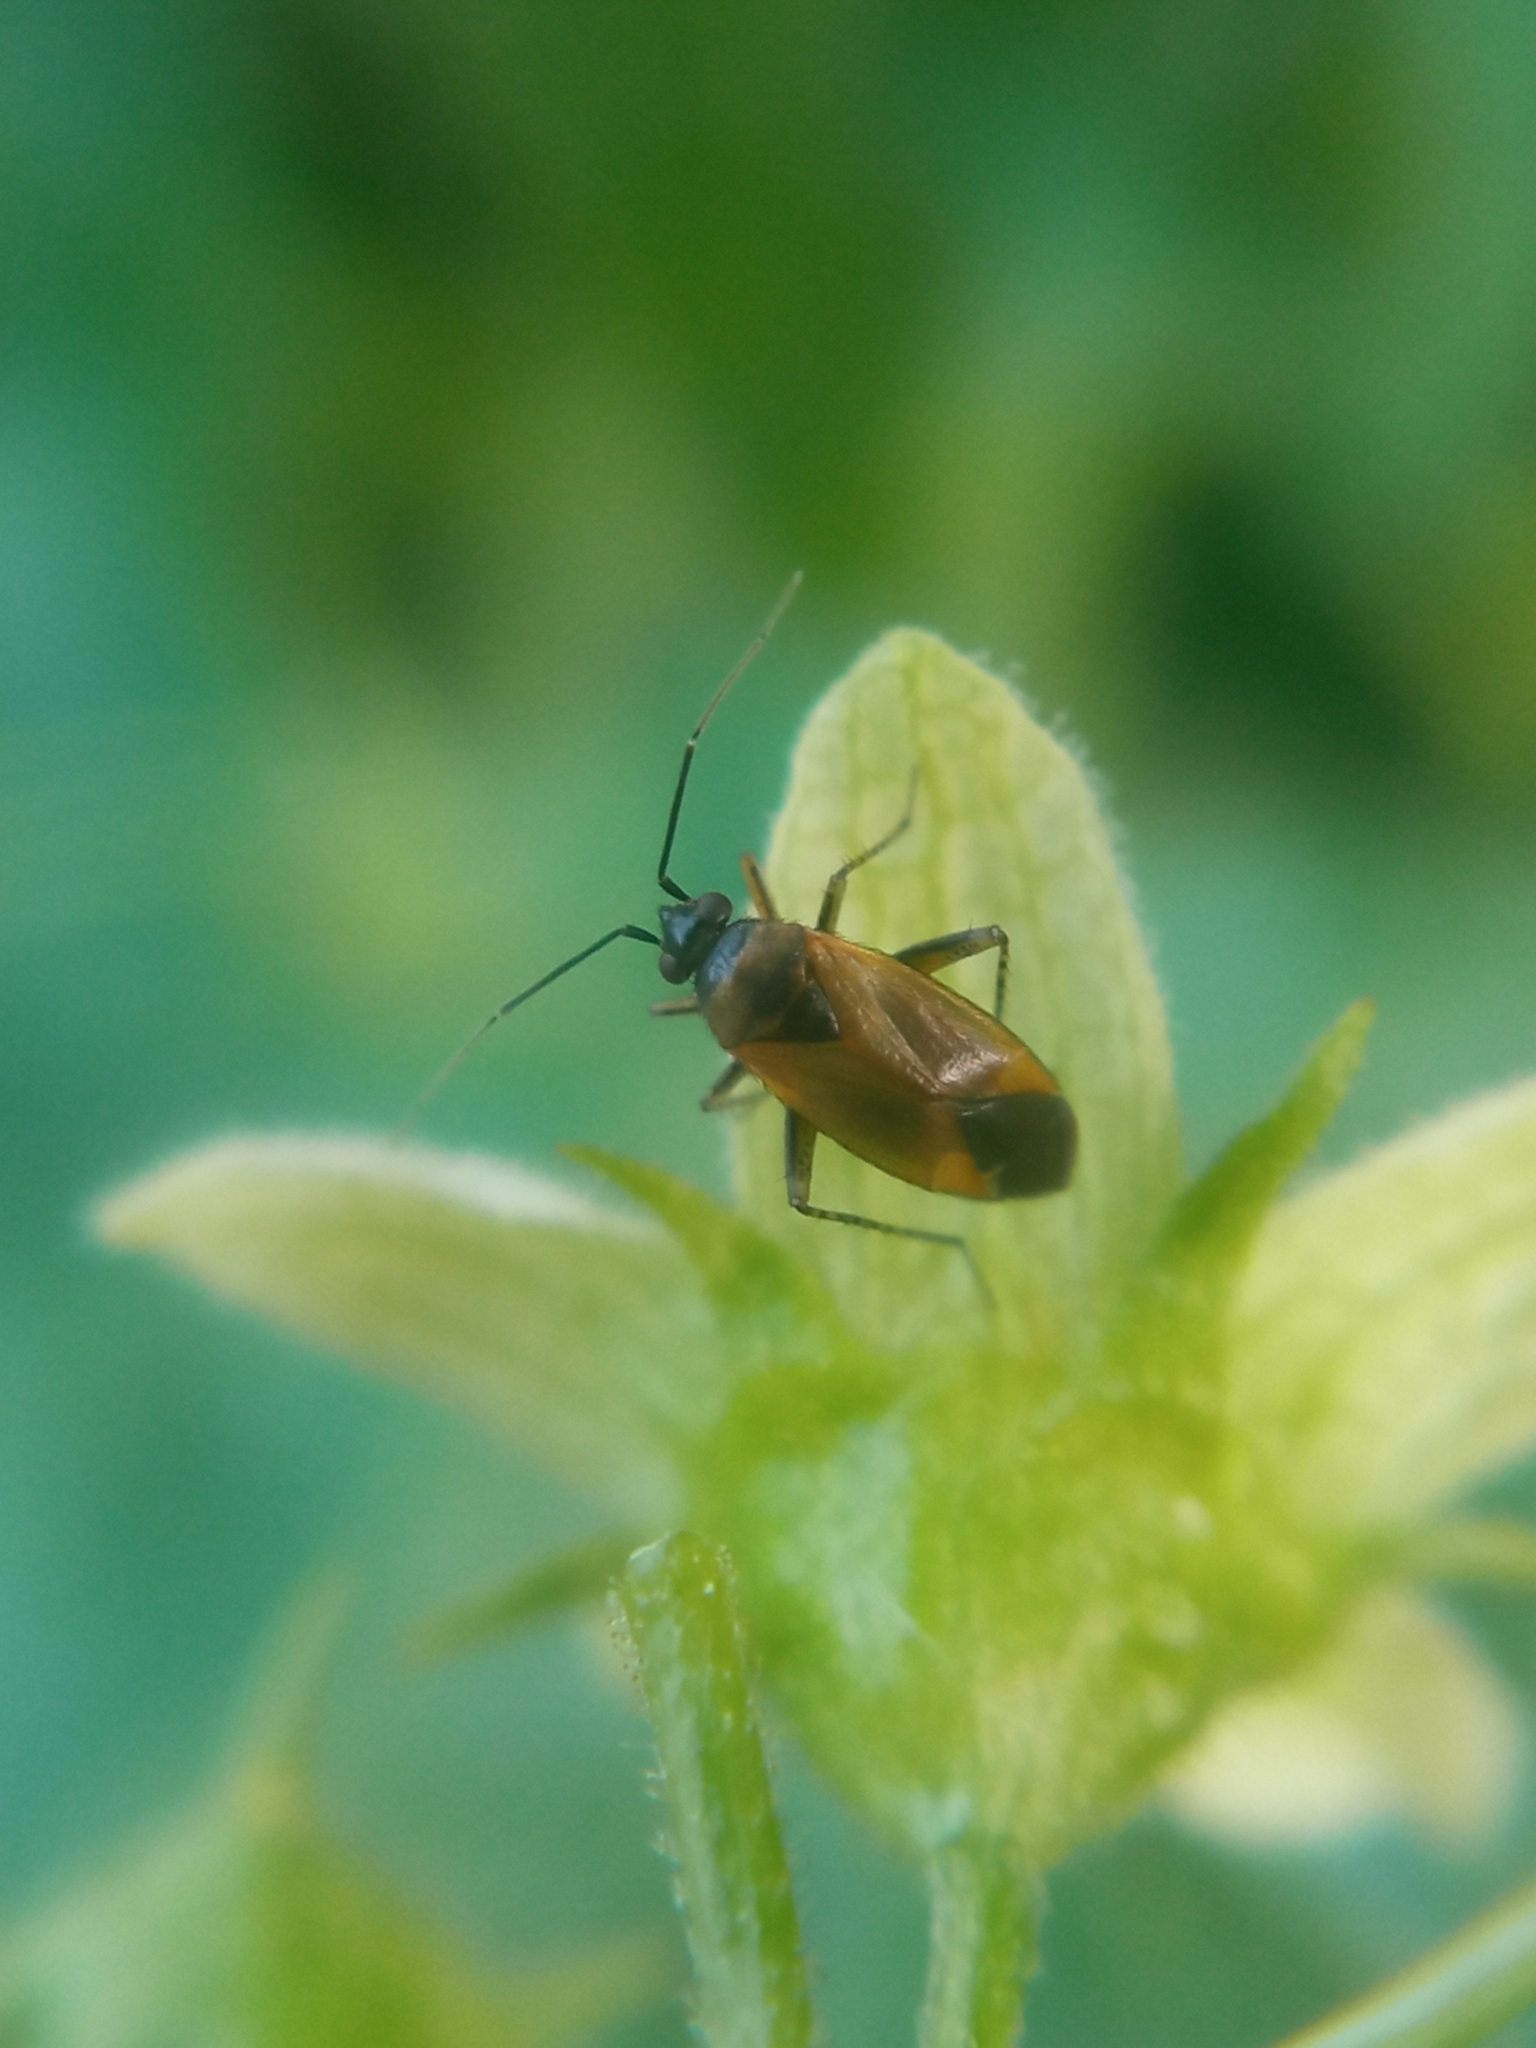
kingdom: Animalia
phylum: Arthropoda
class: Insecta
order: Hemiptera
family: Miridae
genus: Plagiognathus
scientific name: Plagiognathus arbustorum
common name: Plant bug
